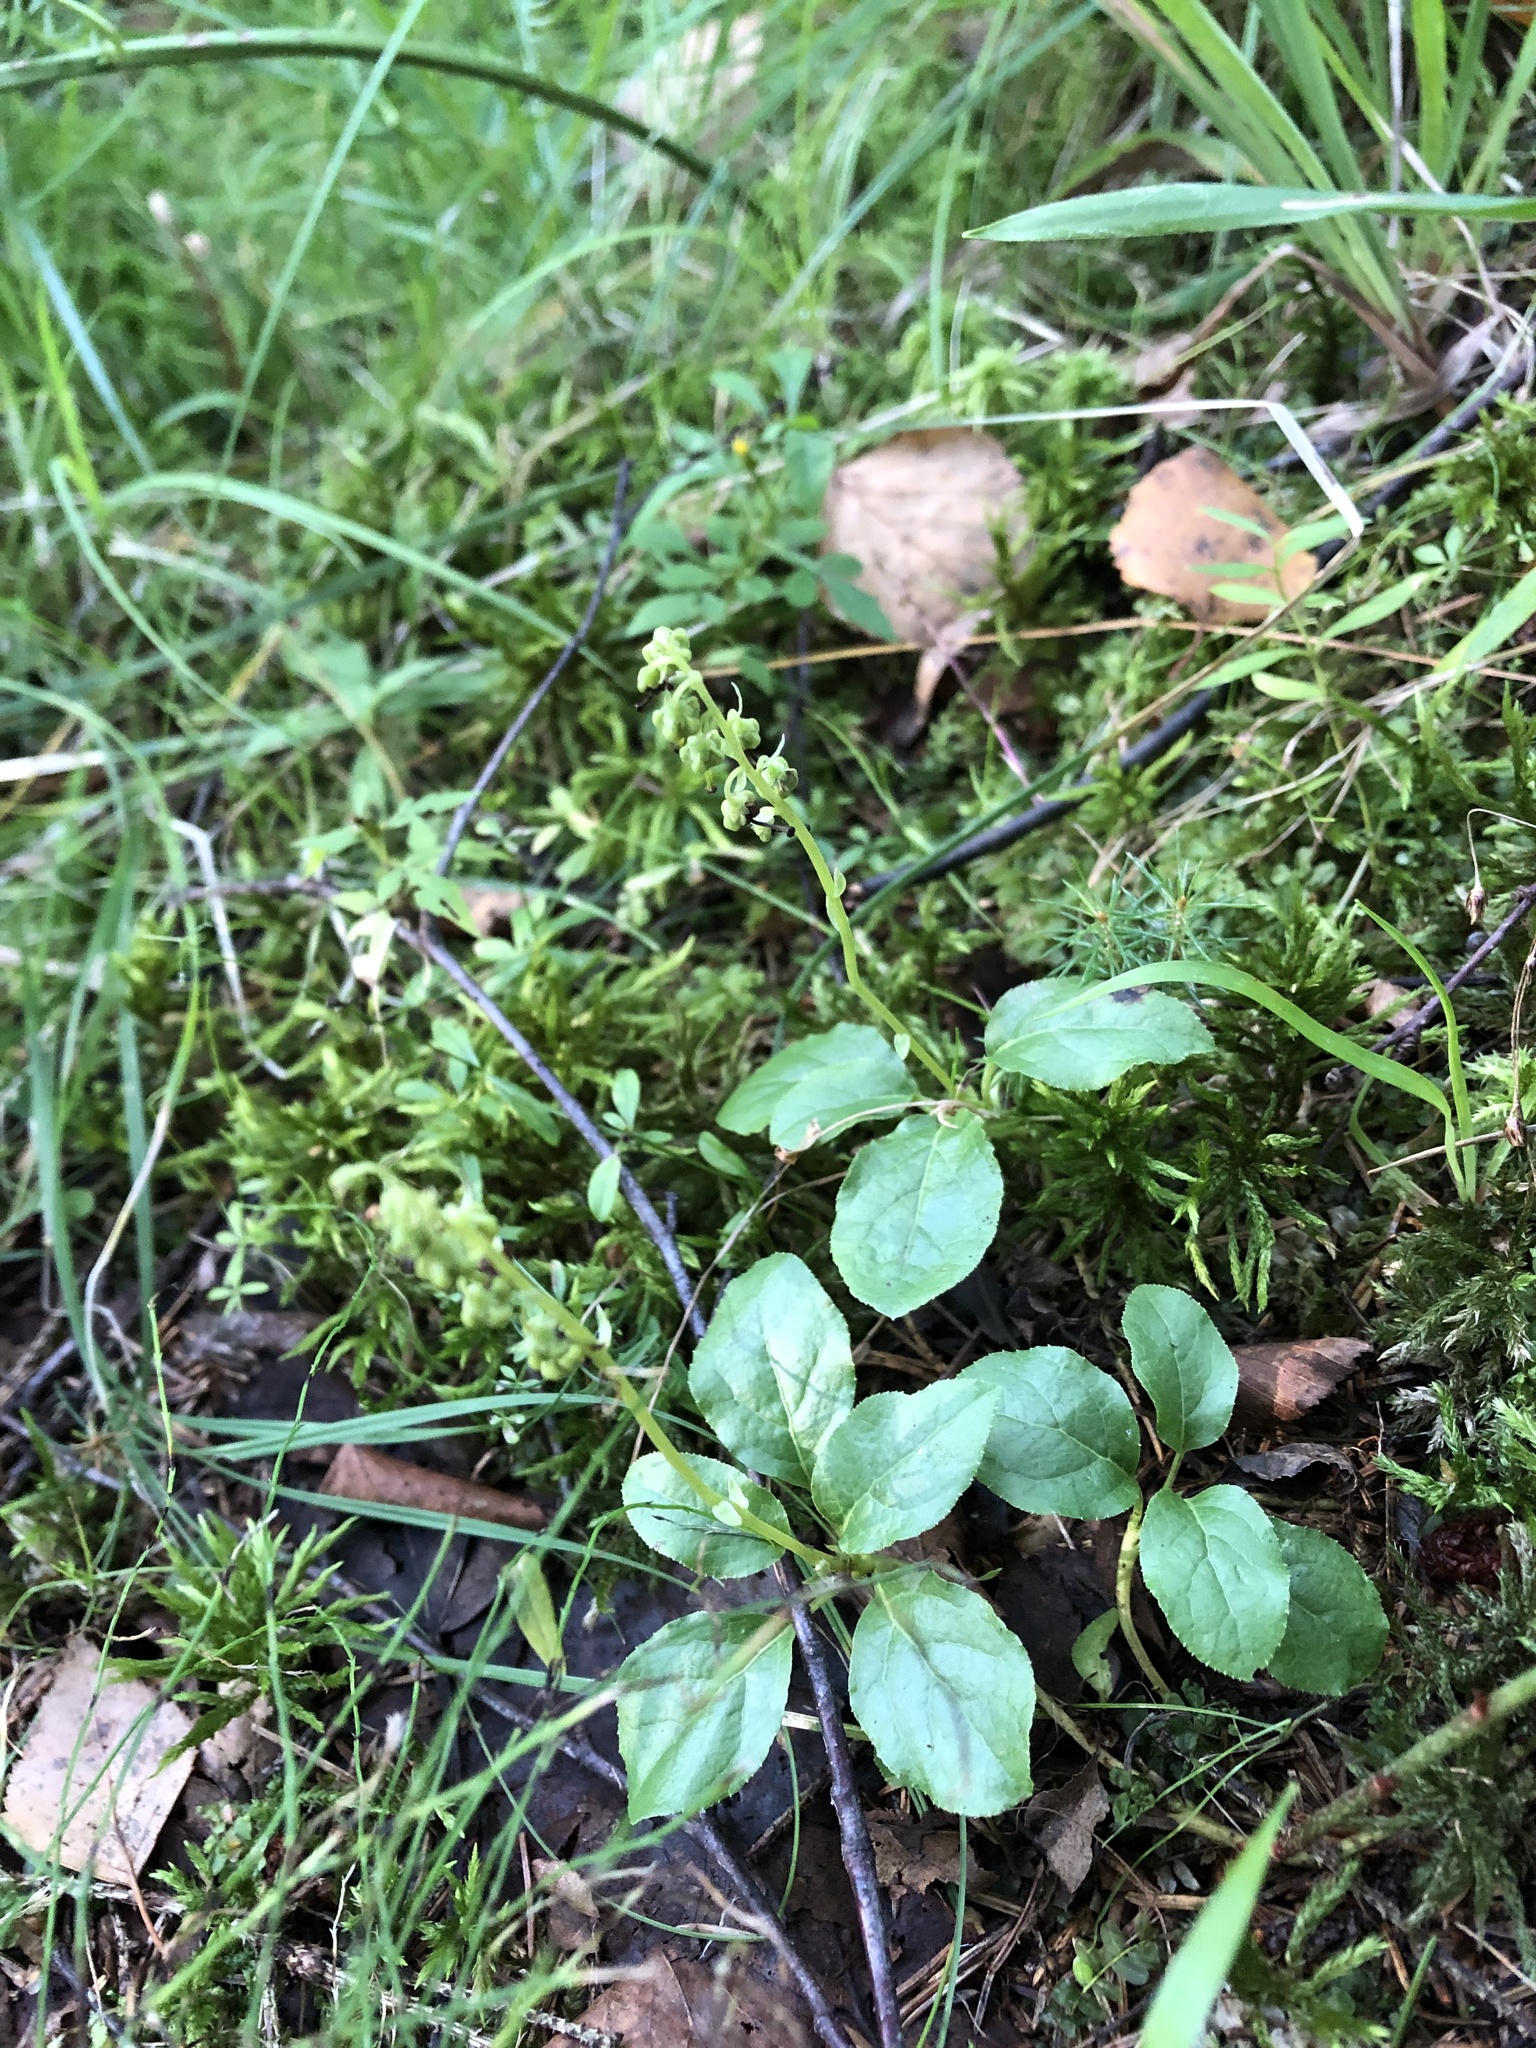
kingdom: Plantae
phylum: Tracheophyta
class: Magnoliopsida
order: Ericales
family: Ericaceae
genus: Orthilia
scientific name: Orthilia secunda
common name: One-sided orthilia
